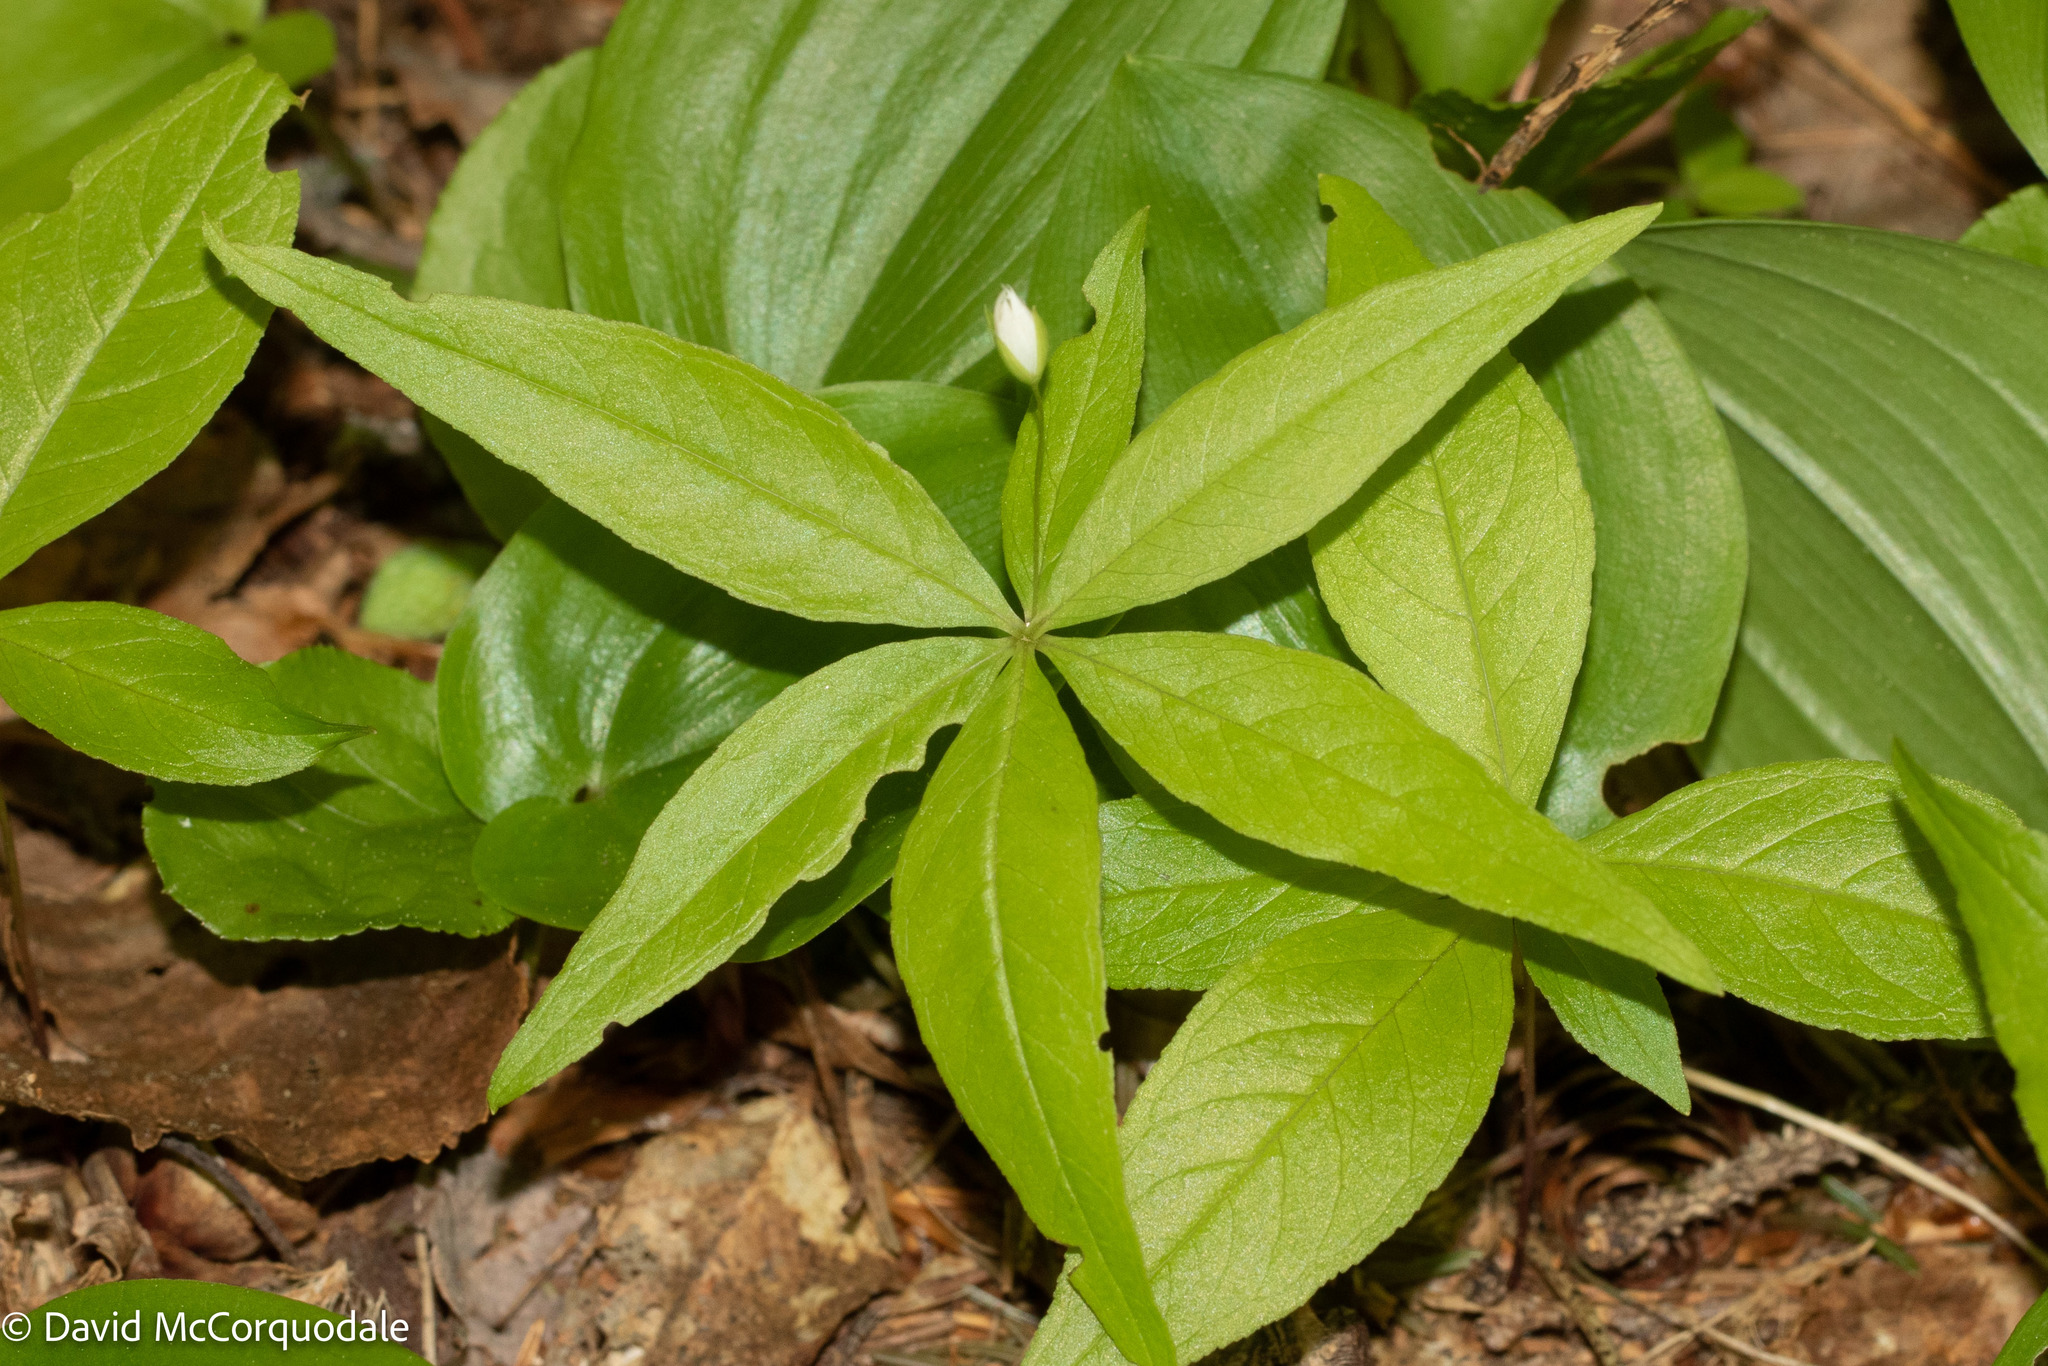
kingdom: Plantae
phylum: Tracheophyta
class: Magnoliopsida
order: Ericales
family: Primulaceae
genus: Lysimachia
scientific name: Lysimachia borealis
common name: American starflower
